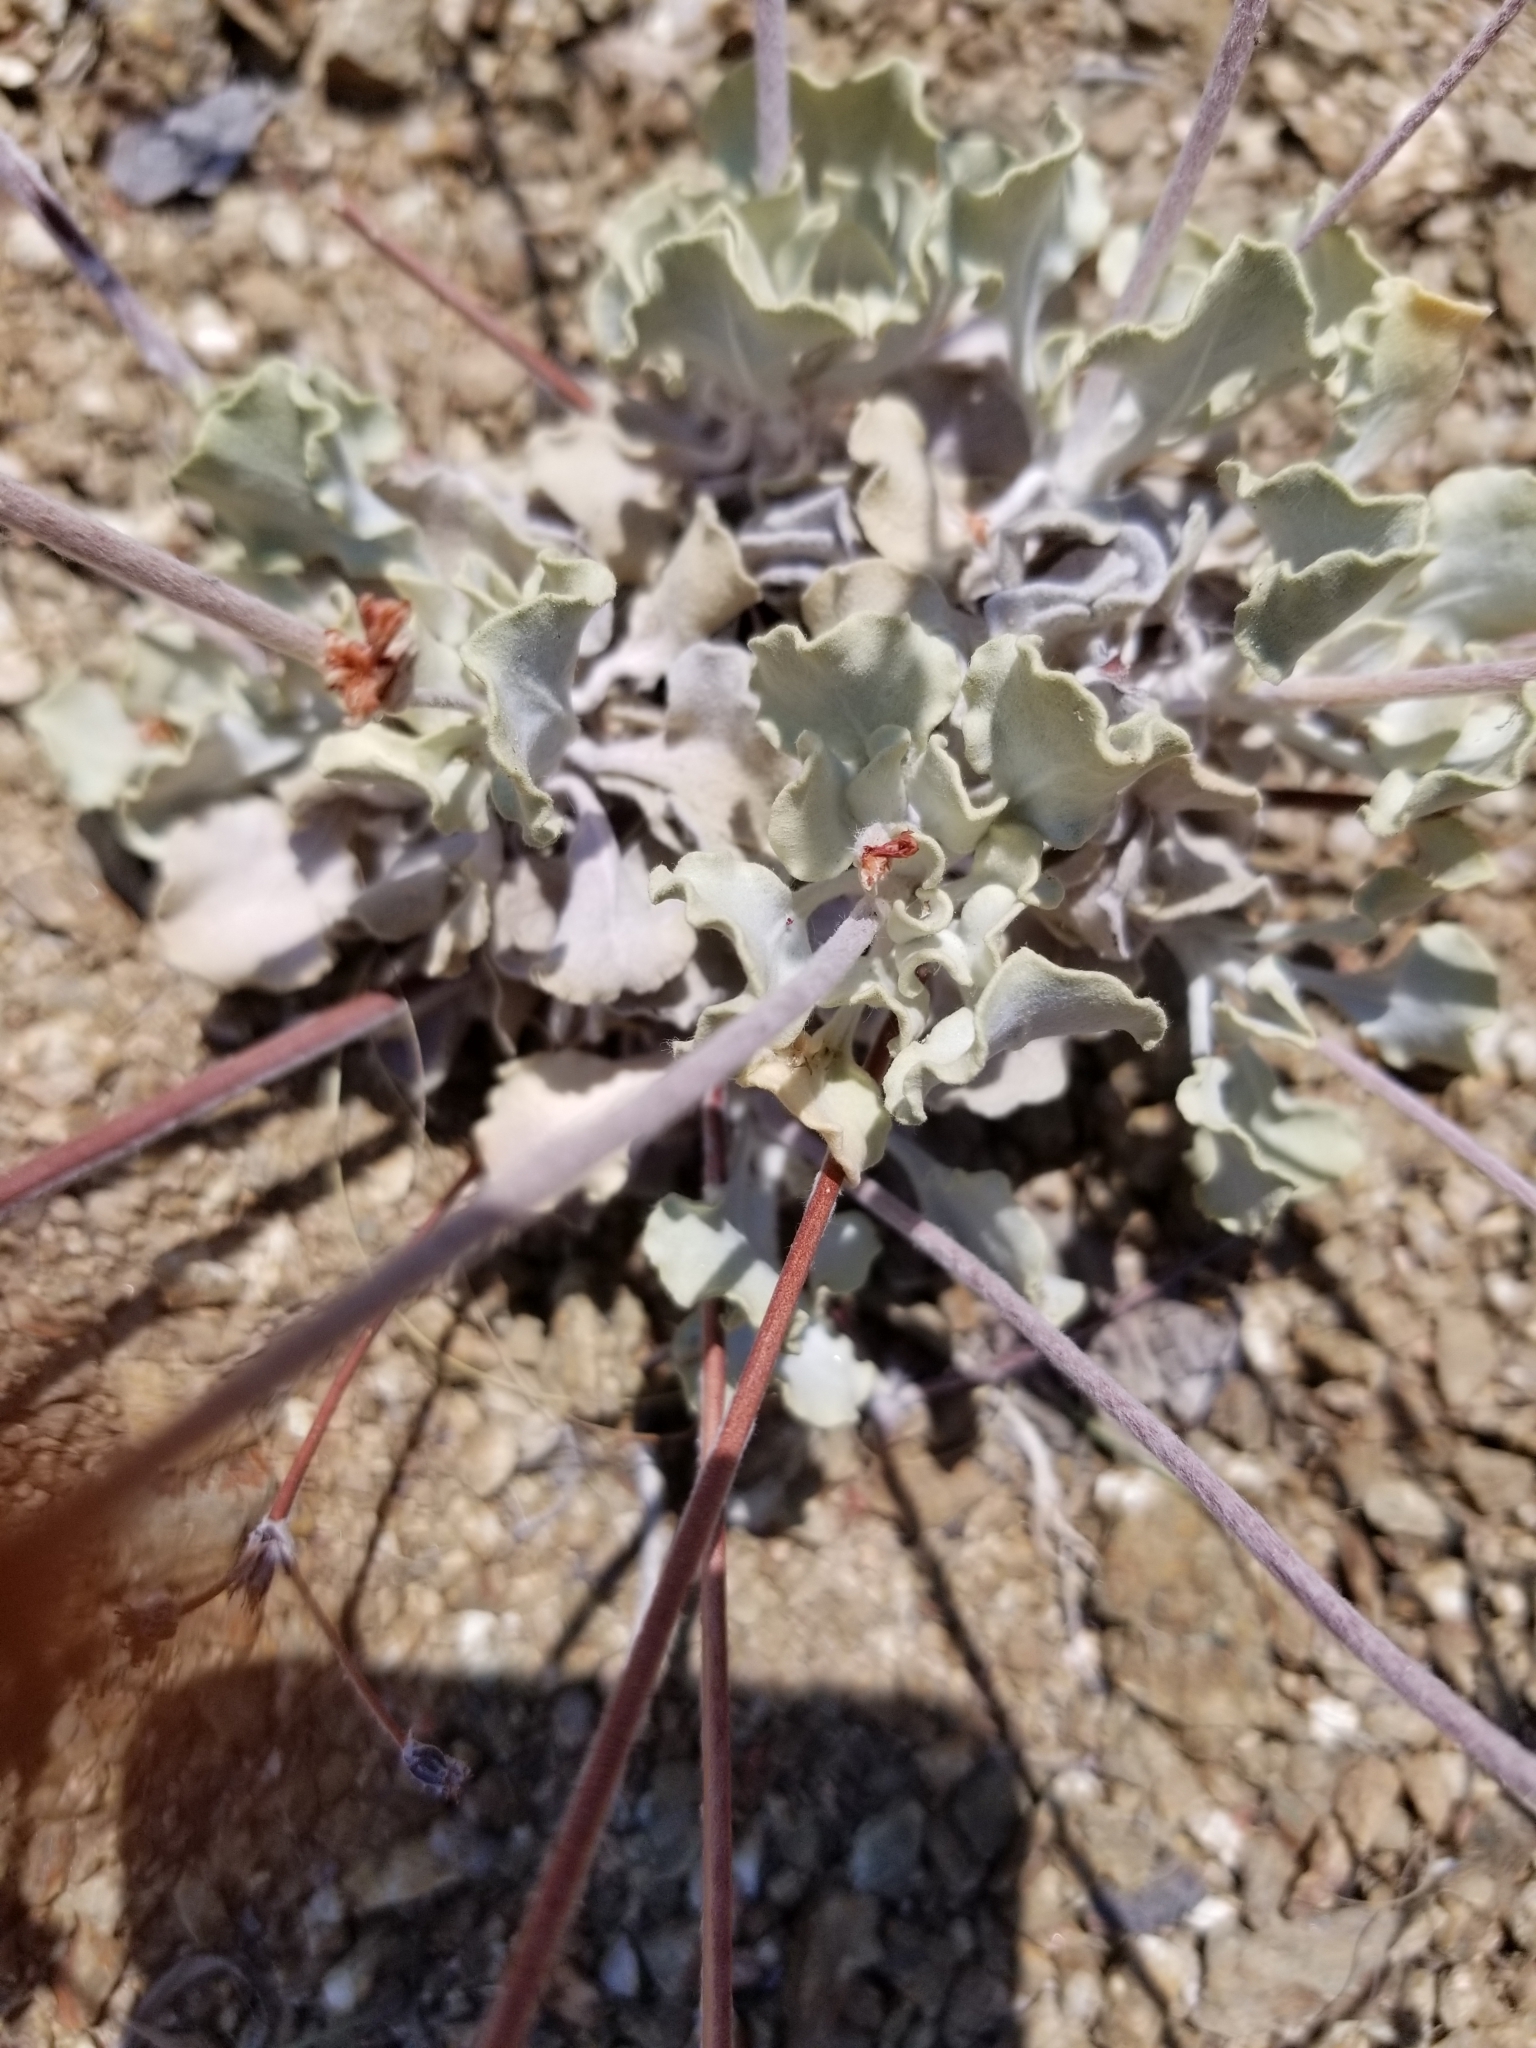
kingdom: Plantae
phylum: Tracheophyta
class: Magnoliopsida
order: Caryophyllales
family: Polygonaceae
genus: Eriogonum
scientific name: Eriogonum saxatile
